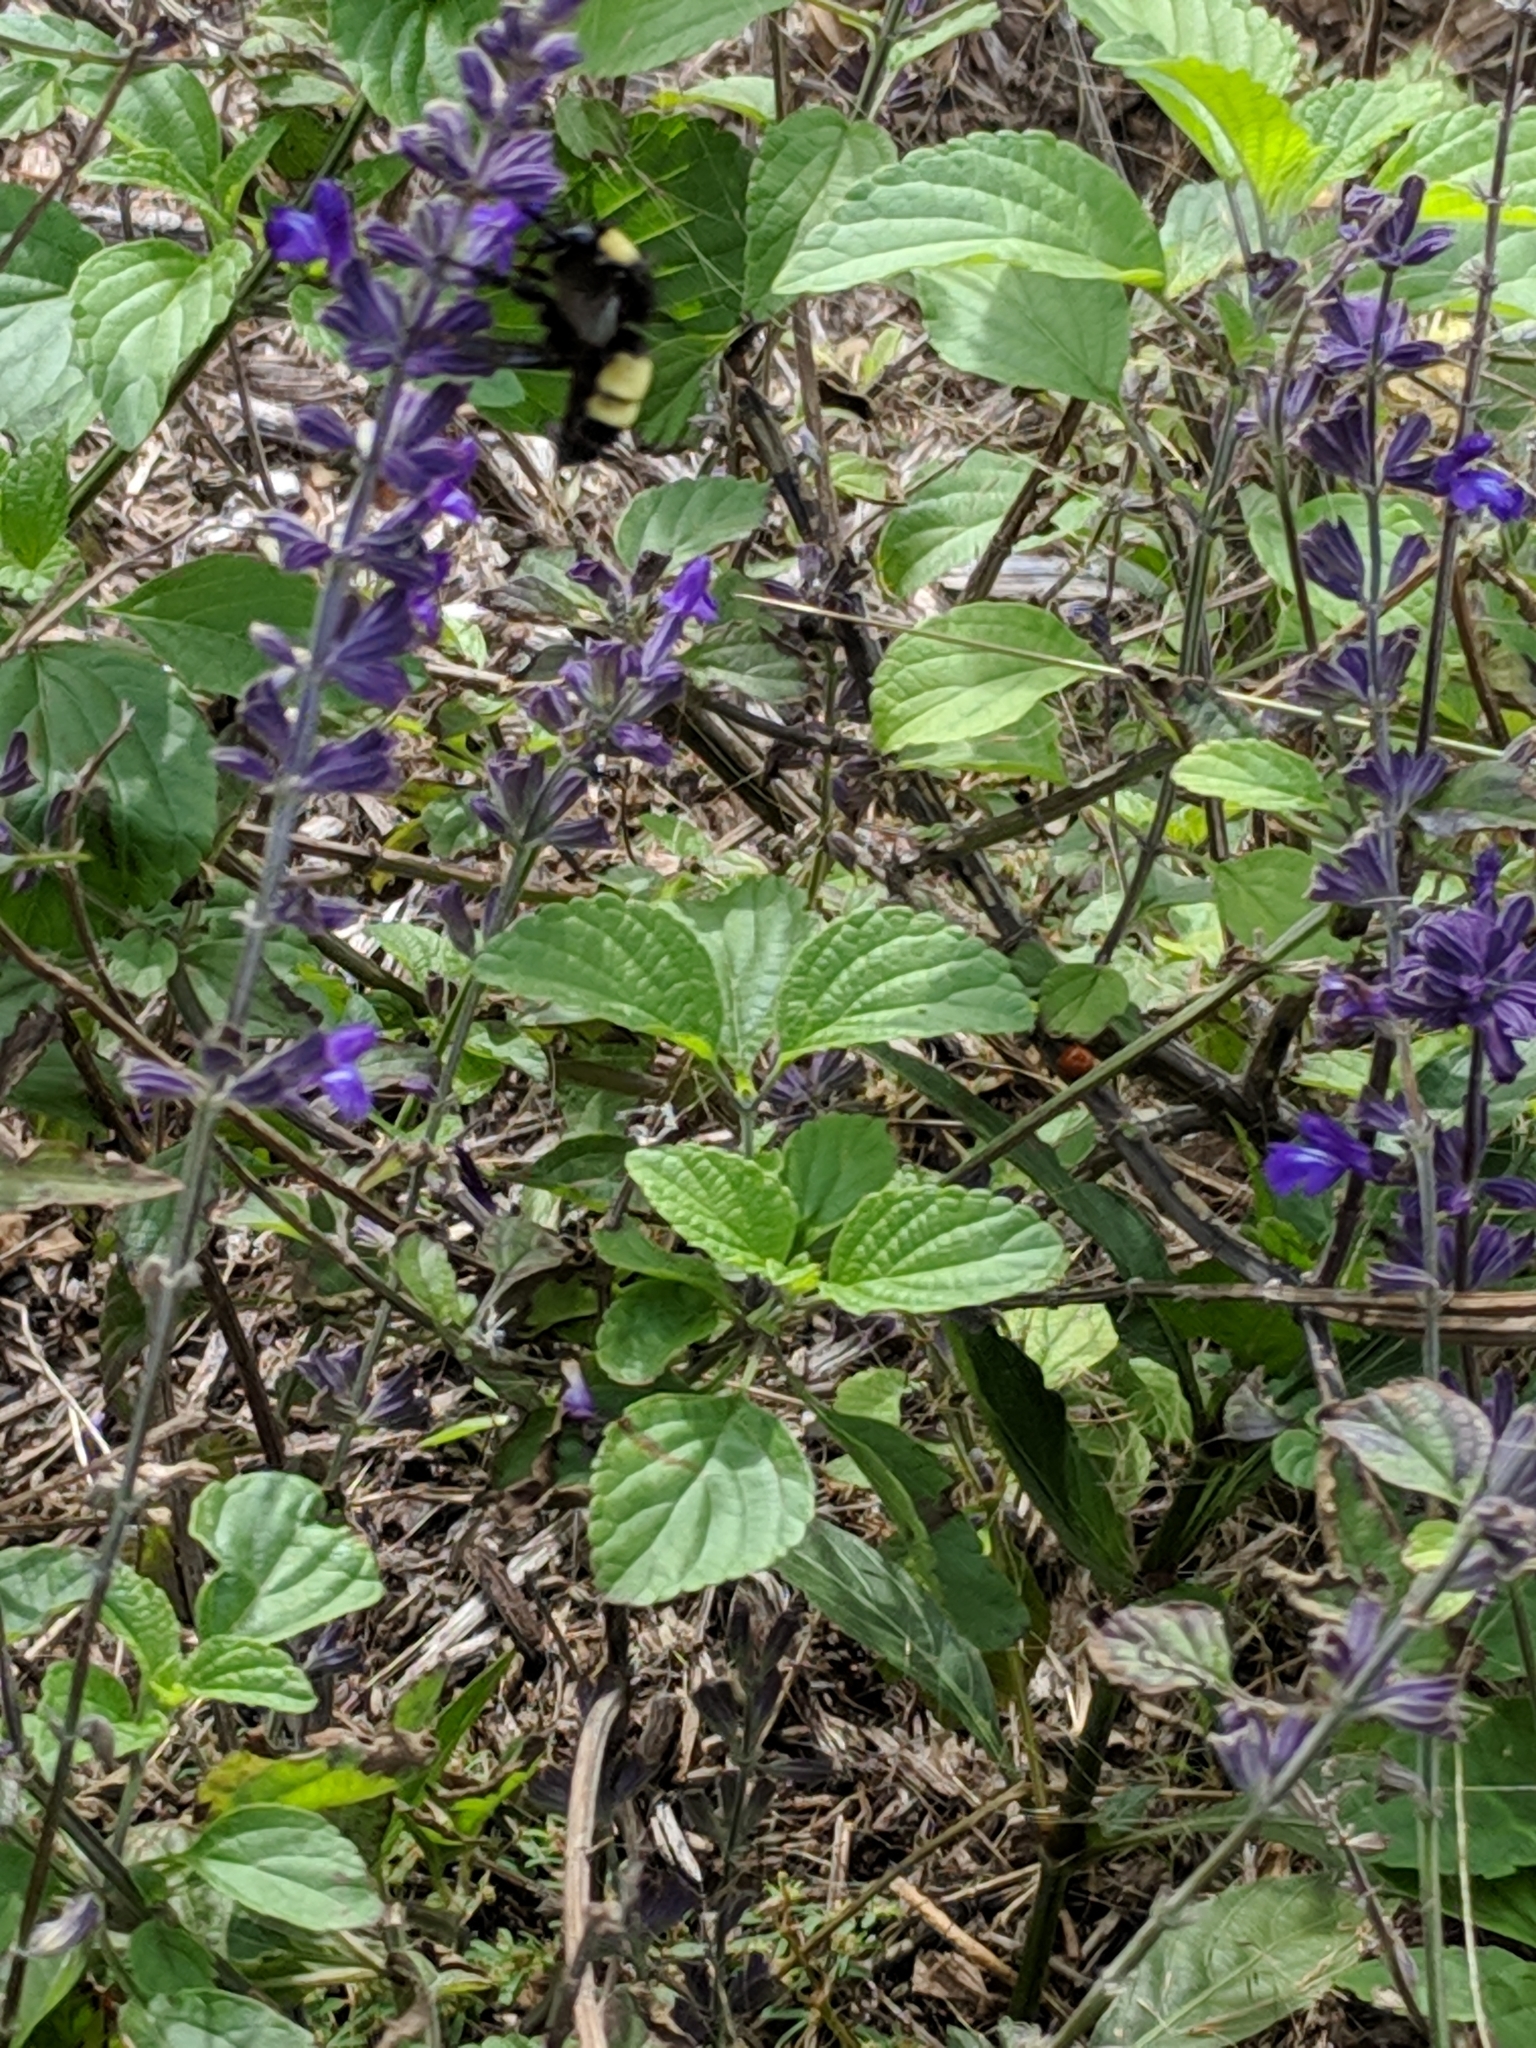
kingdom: Animalia
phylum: Arthropoda
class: Insecta
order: Hymenoptera
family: Apidae
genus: Bombus
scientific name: Bombus pensylvanicus
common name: Bumble bee
